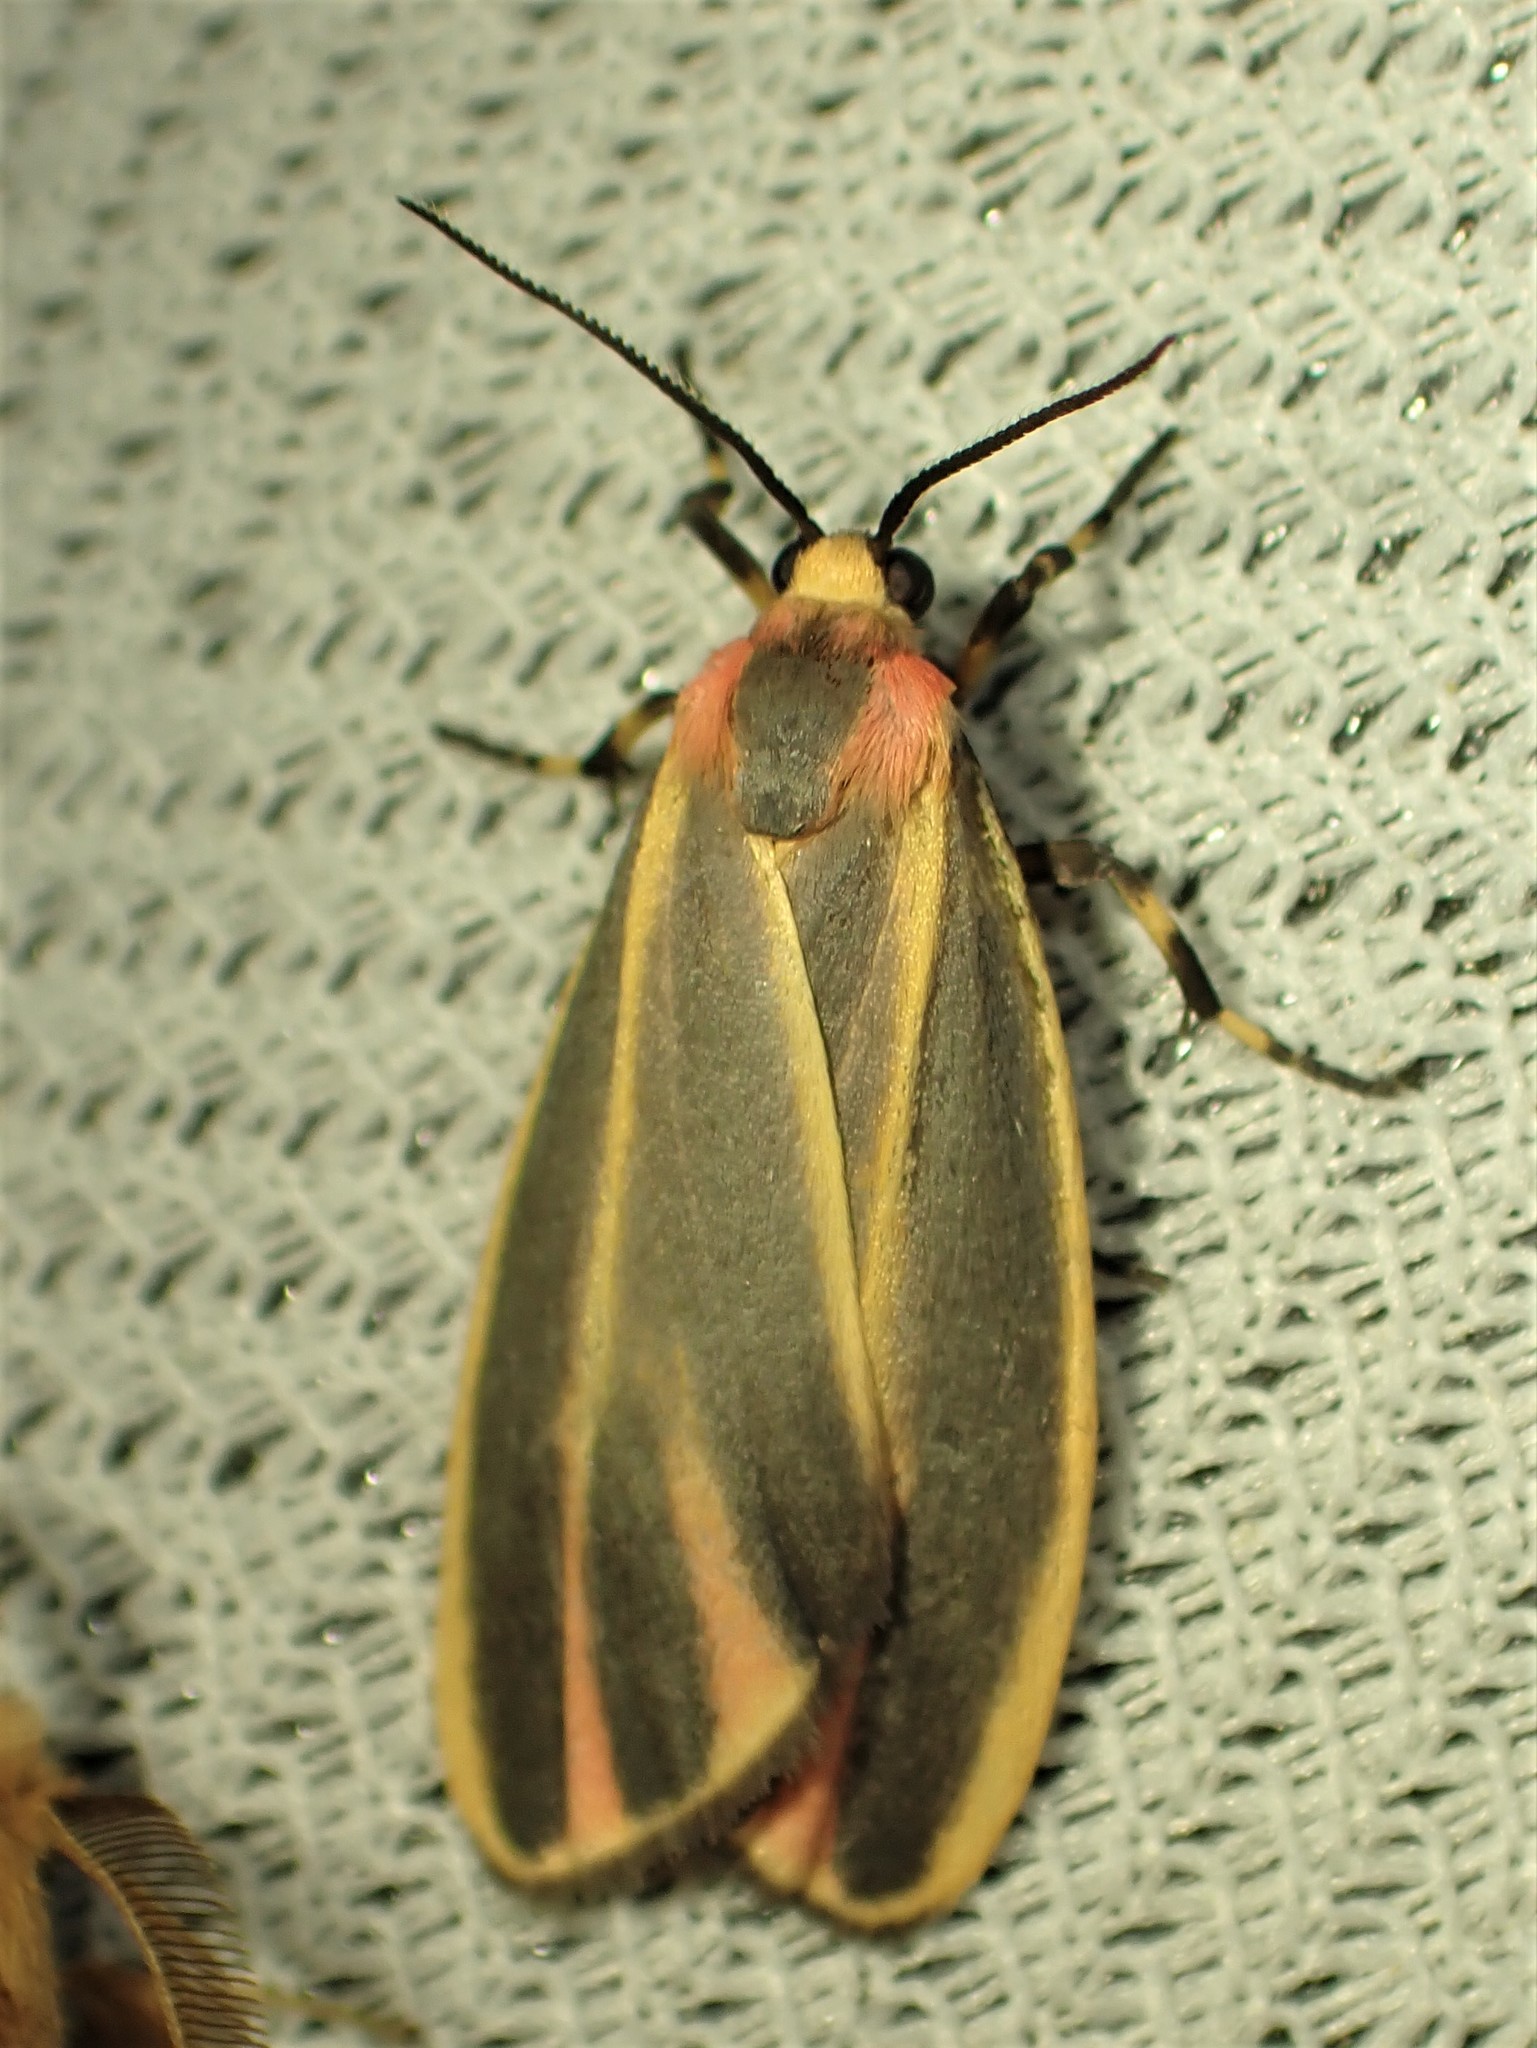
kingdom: Animalia
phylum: Arthropoda
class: Insecta
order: Lepidoptera
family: Erebidae
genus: Hypoprepia
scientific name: Hypoprepia fucosa
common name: Painted lichen moth
